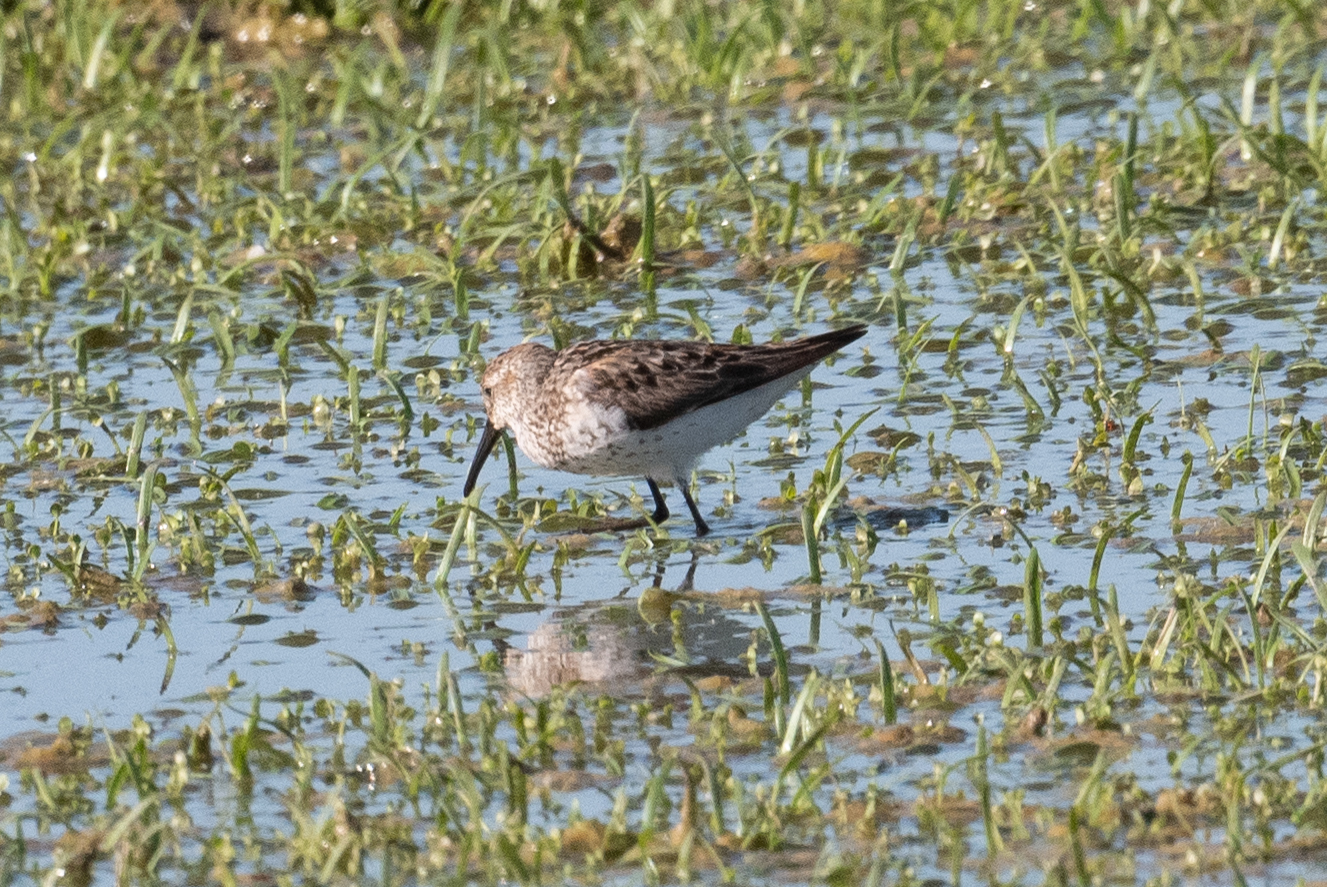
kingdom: Animalia
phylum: Chordata
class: Aves
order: Charadriiformes
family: Scolopacidae
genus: Calidris
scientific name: Calidris mauri
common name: Western sandpiper
